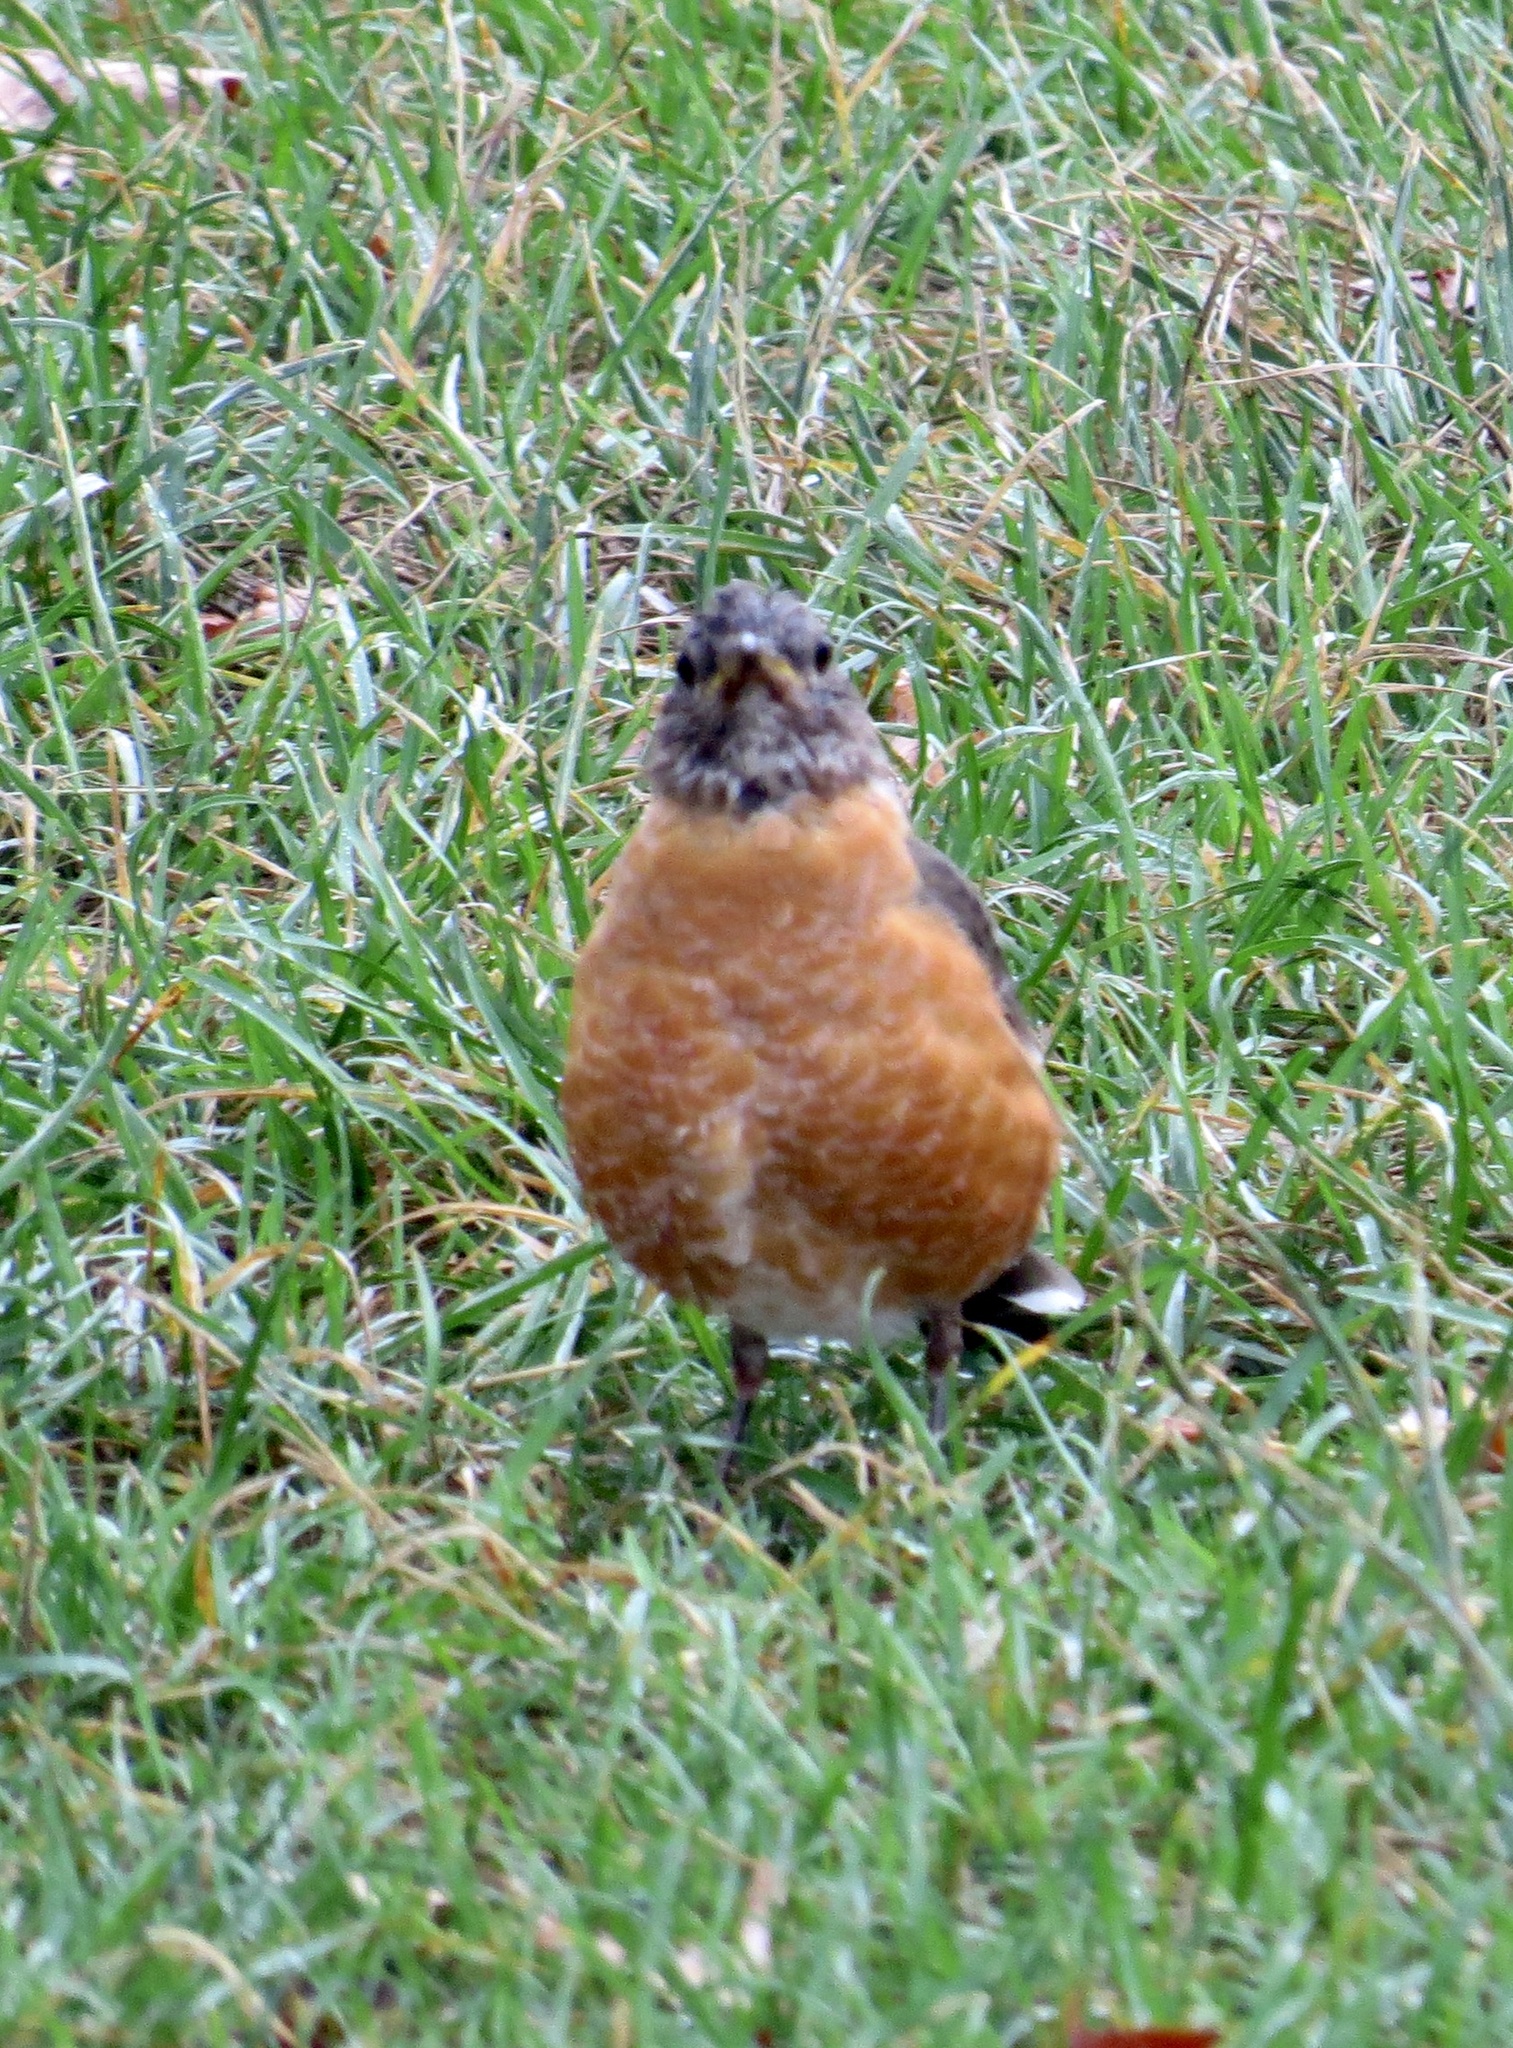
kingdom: Animalia
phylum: Chordata
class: Aves
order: Passeriformes
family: Turdidae
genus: Turdus
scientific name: Turdus migratorius
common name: American robin
